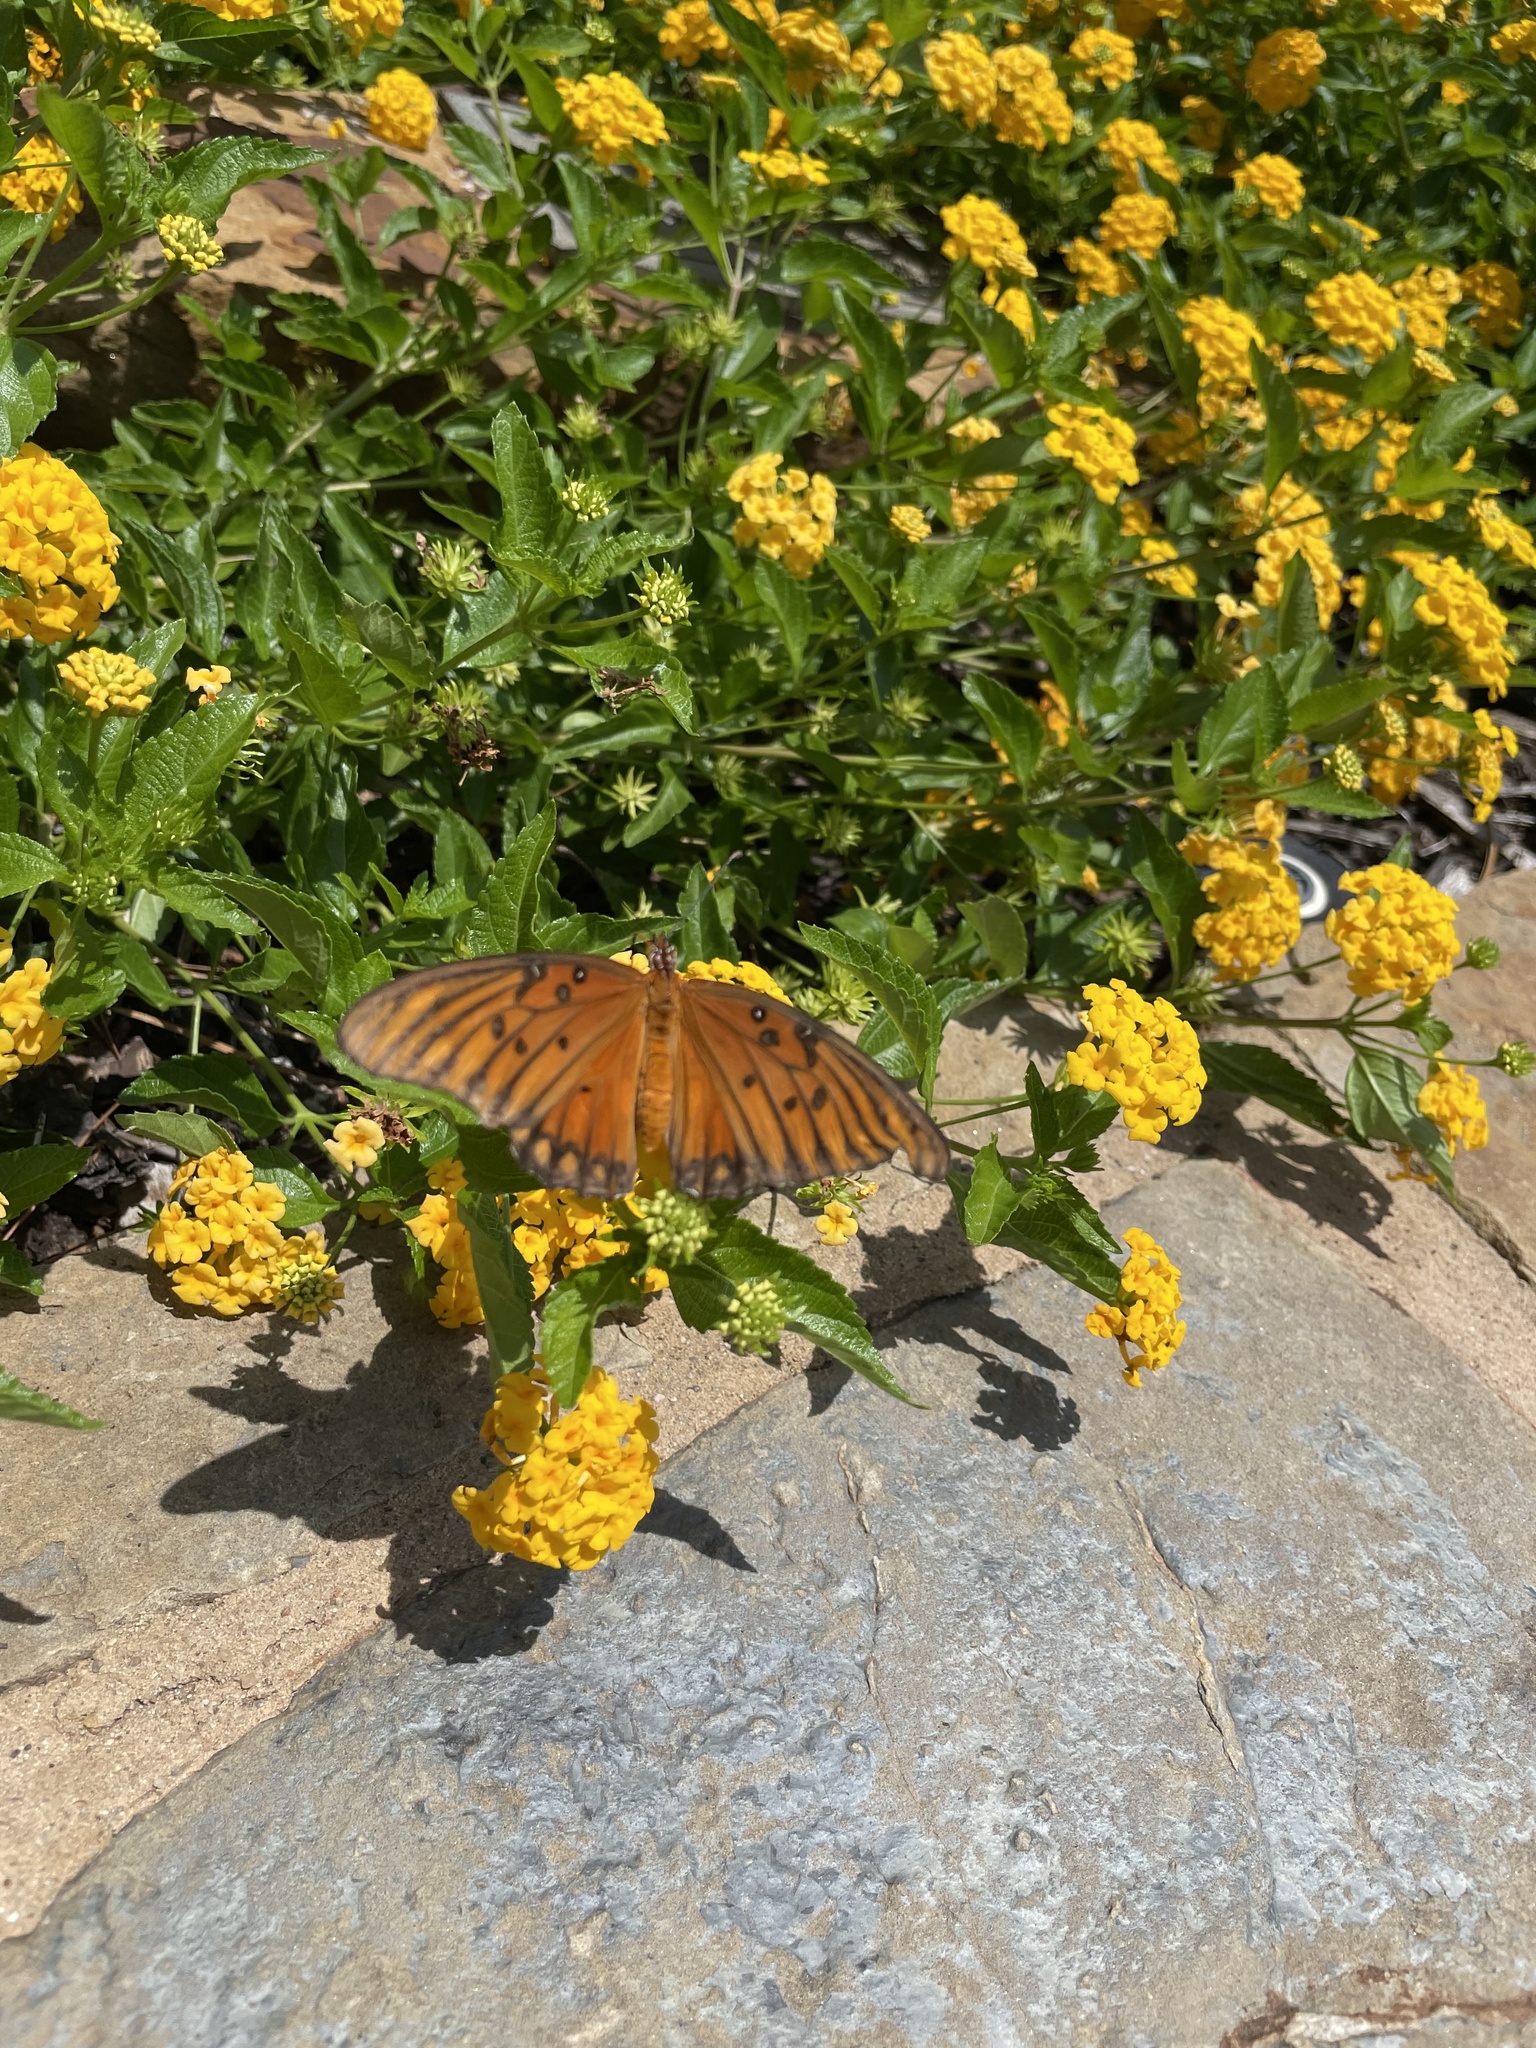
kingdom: Animalia
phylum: Arthropoda
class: Insecta
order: Lepidoptera
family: Nymphalidae
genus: Dione
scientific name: Dione vanillae
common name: Gulf fritillary
